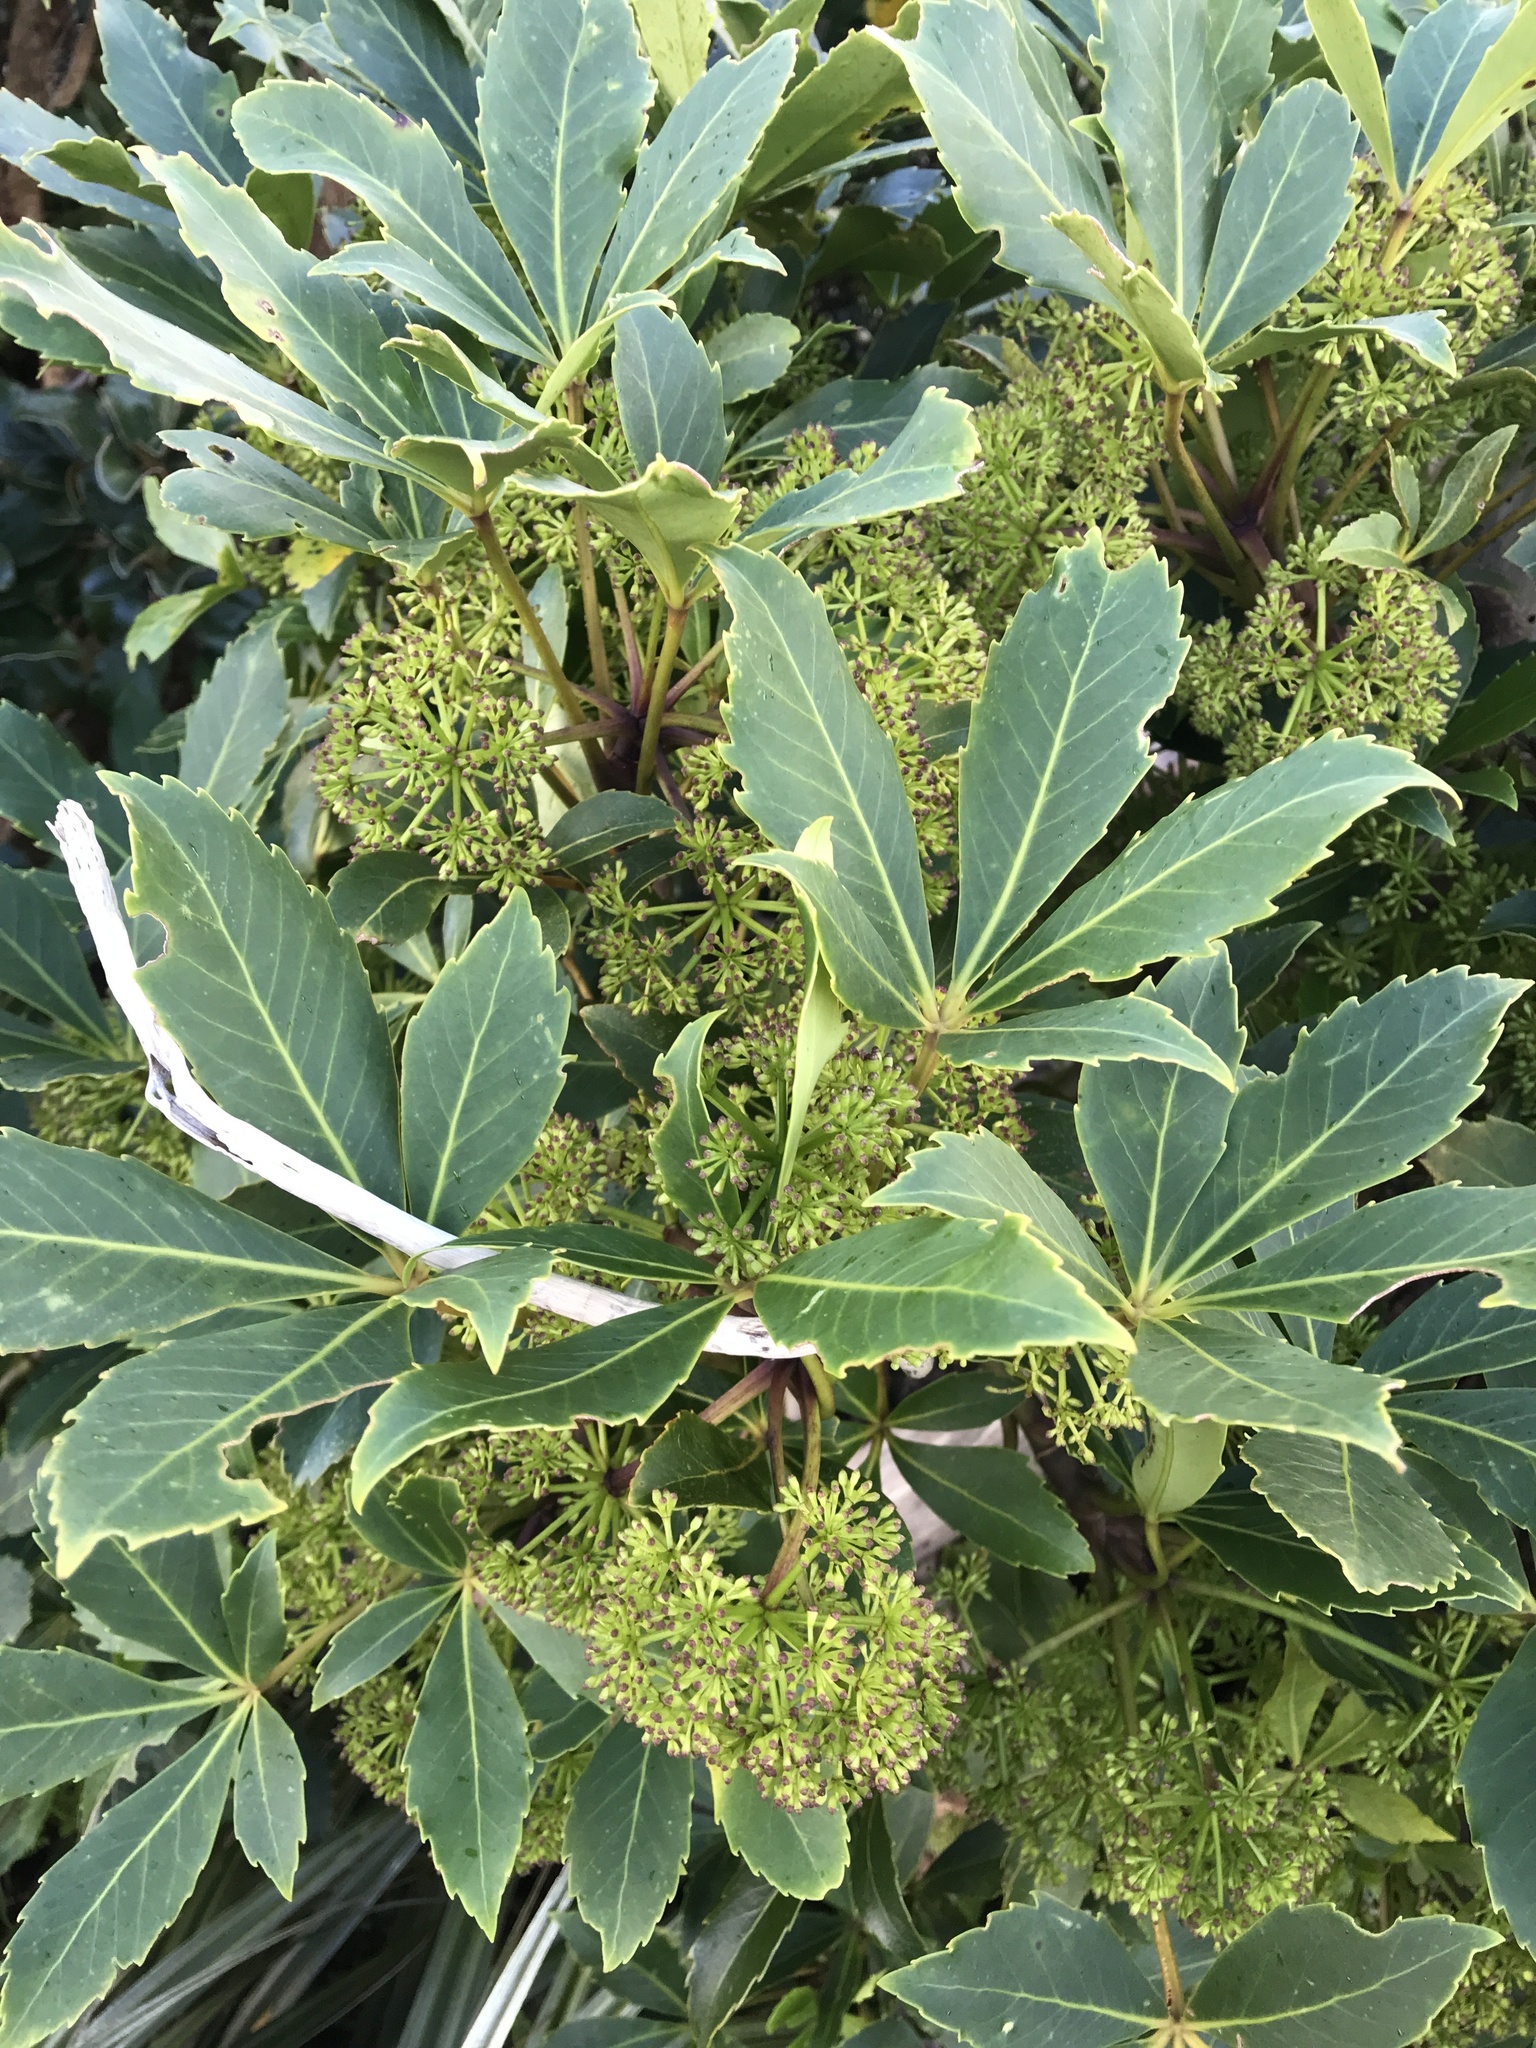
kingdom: Plantae
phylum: Tracheophyta
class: Magnoliopsida
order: Apiales
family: Araliaceae
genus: Neopanax
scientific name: Neopanax colensoi
